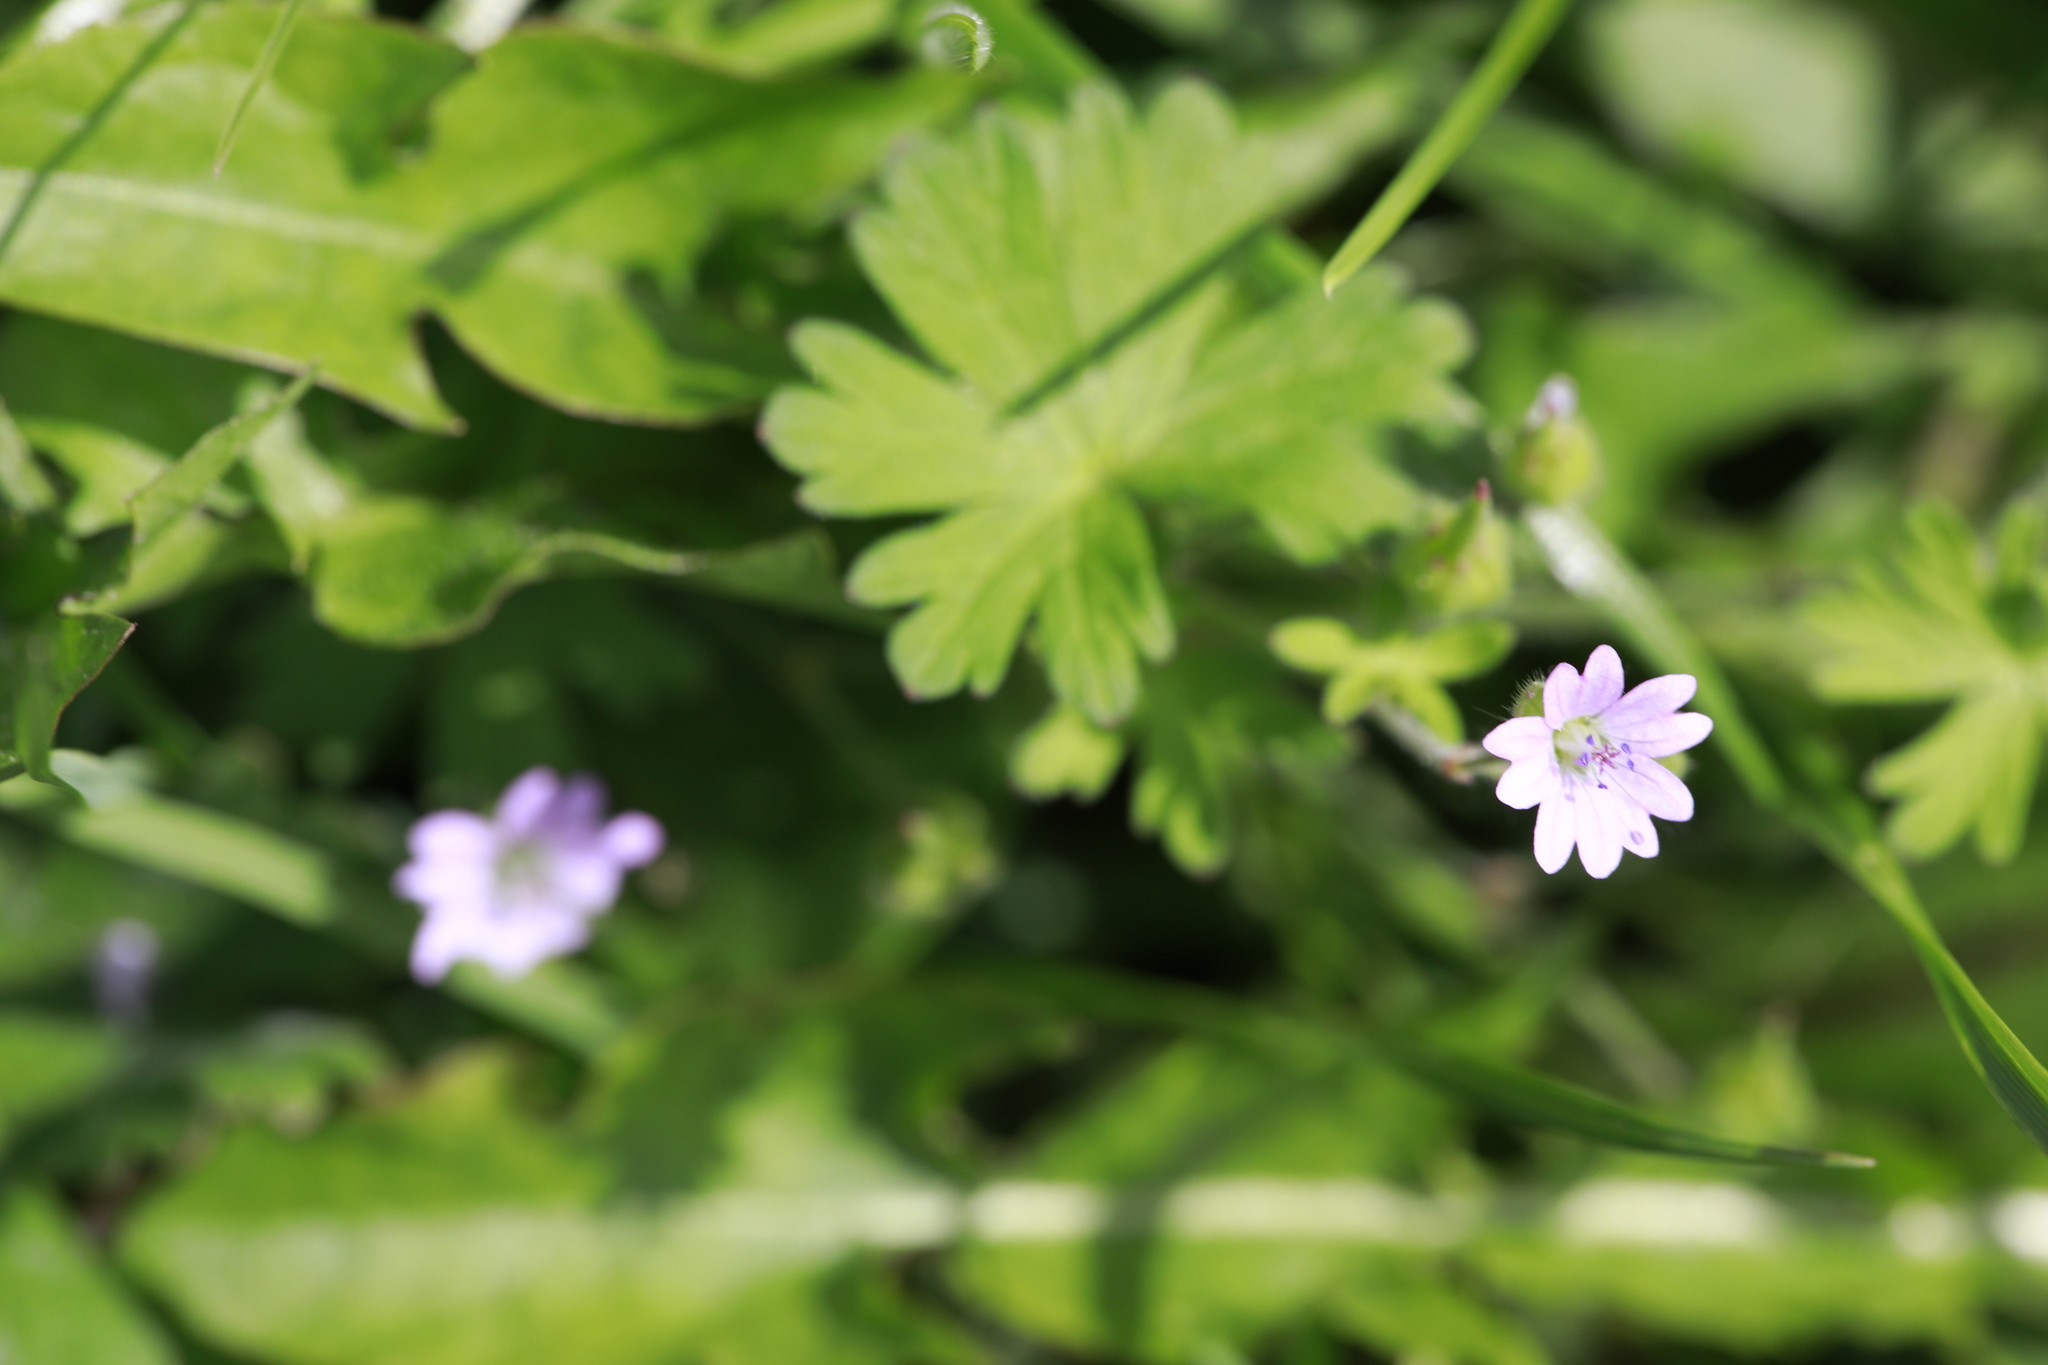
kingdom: Plantae
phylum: Tracheophyta
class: Magnoliopsida
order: Geraniales
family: Geraniaceae
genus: Geranium
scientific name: Geranium molle
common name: Dove's-foot crane's-bill
